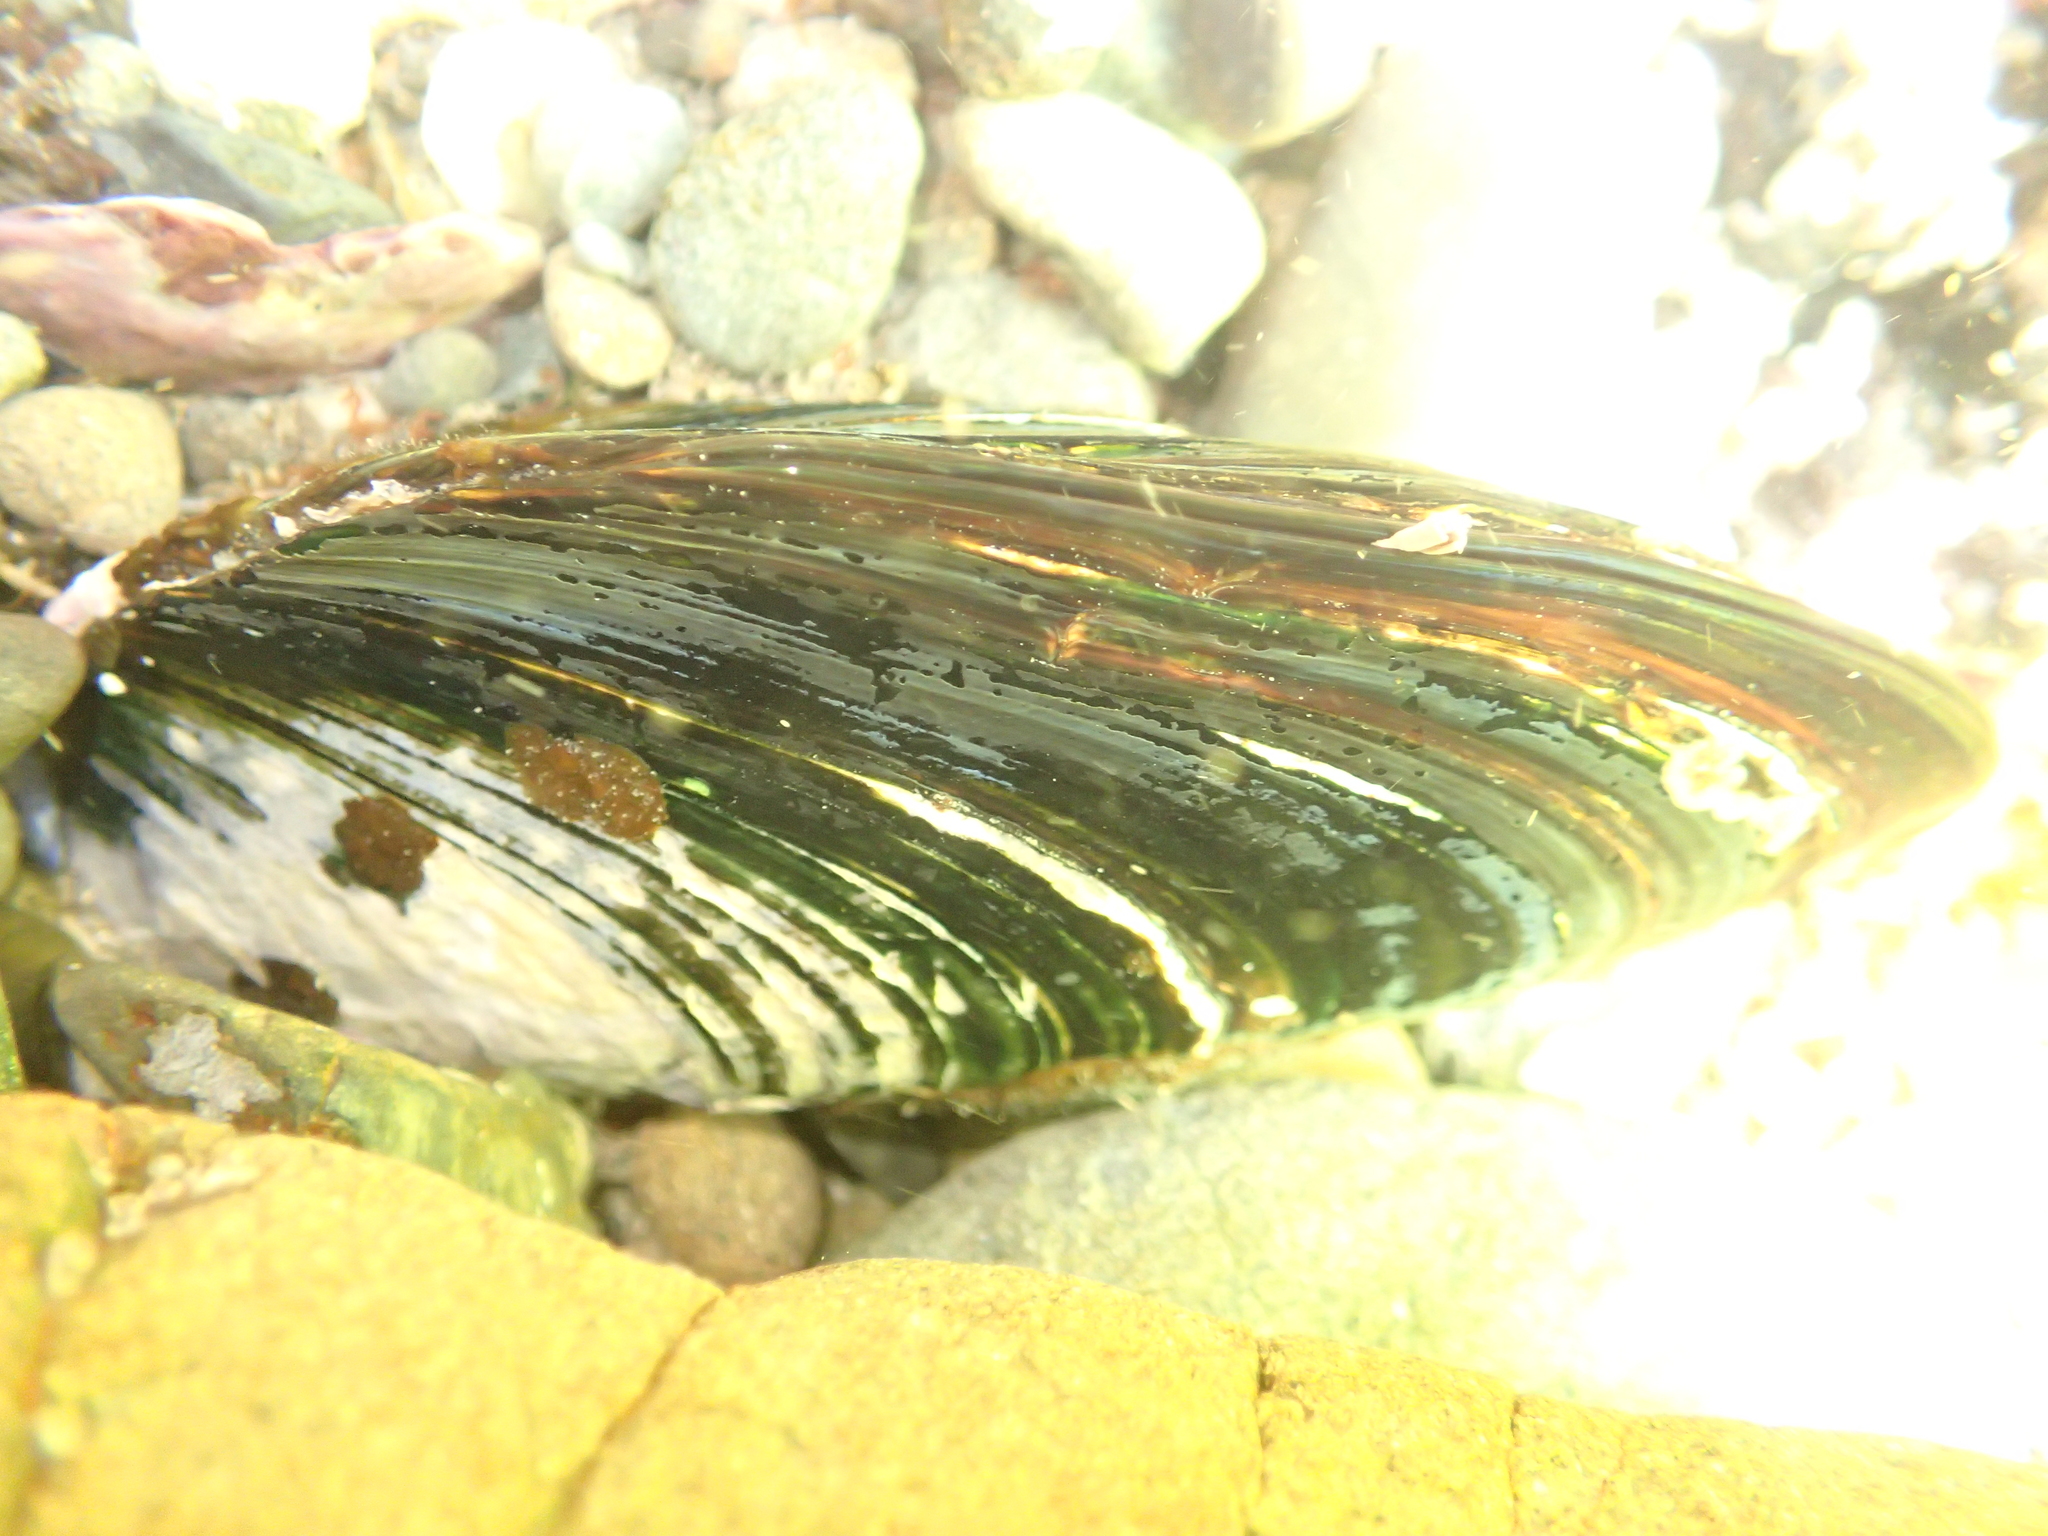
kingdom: Animalia
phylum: Mollusca
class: Bivalvia
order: Mytilida
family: Mytilidae
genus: Perna
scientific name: Perna canaliculus
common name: New zealand greenshelltm
